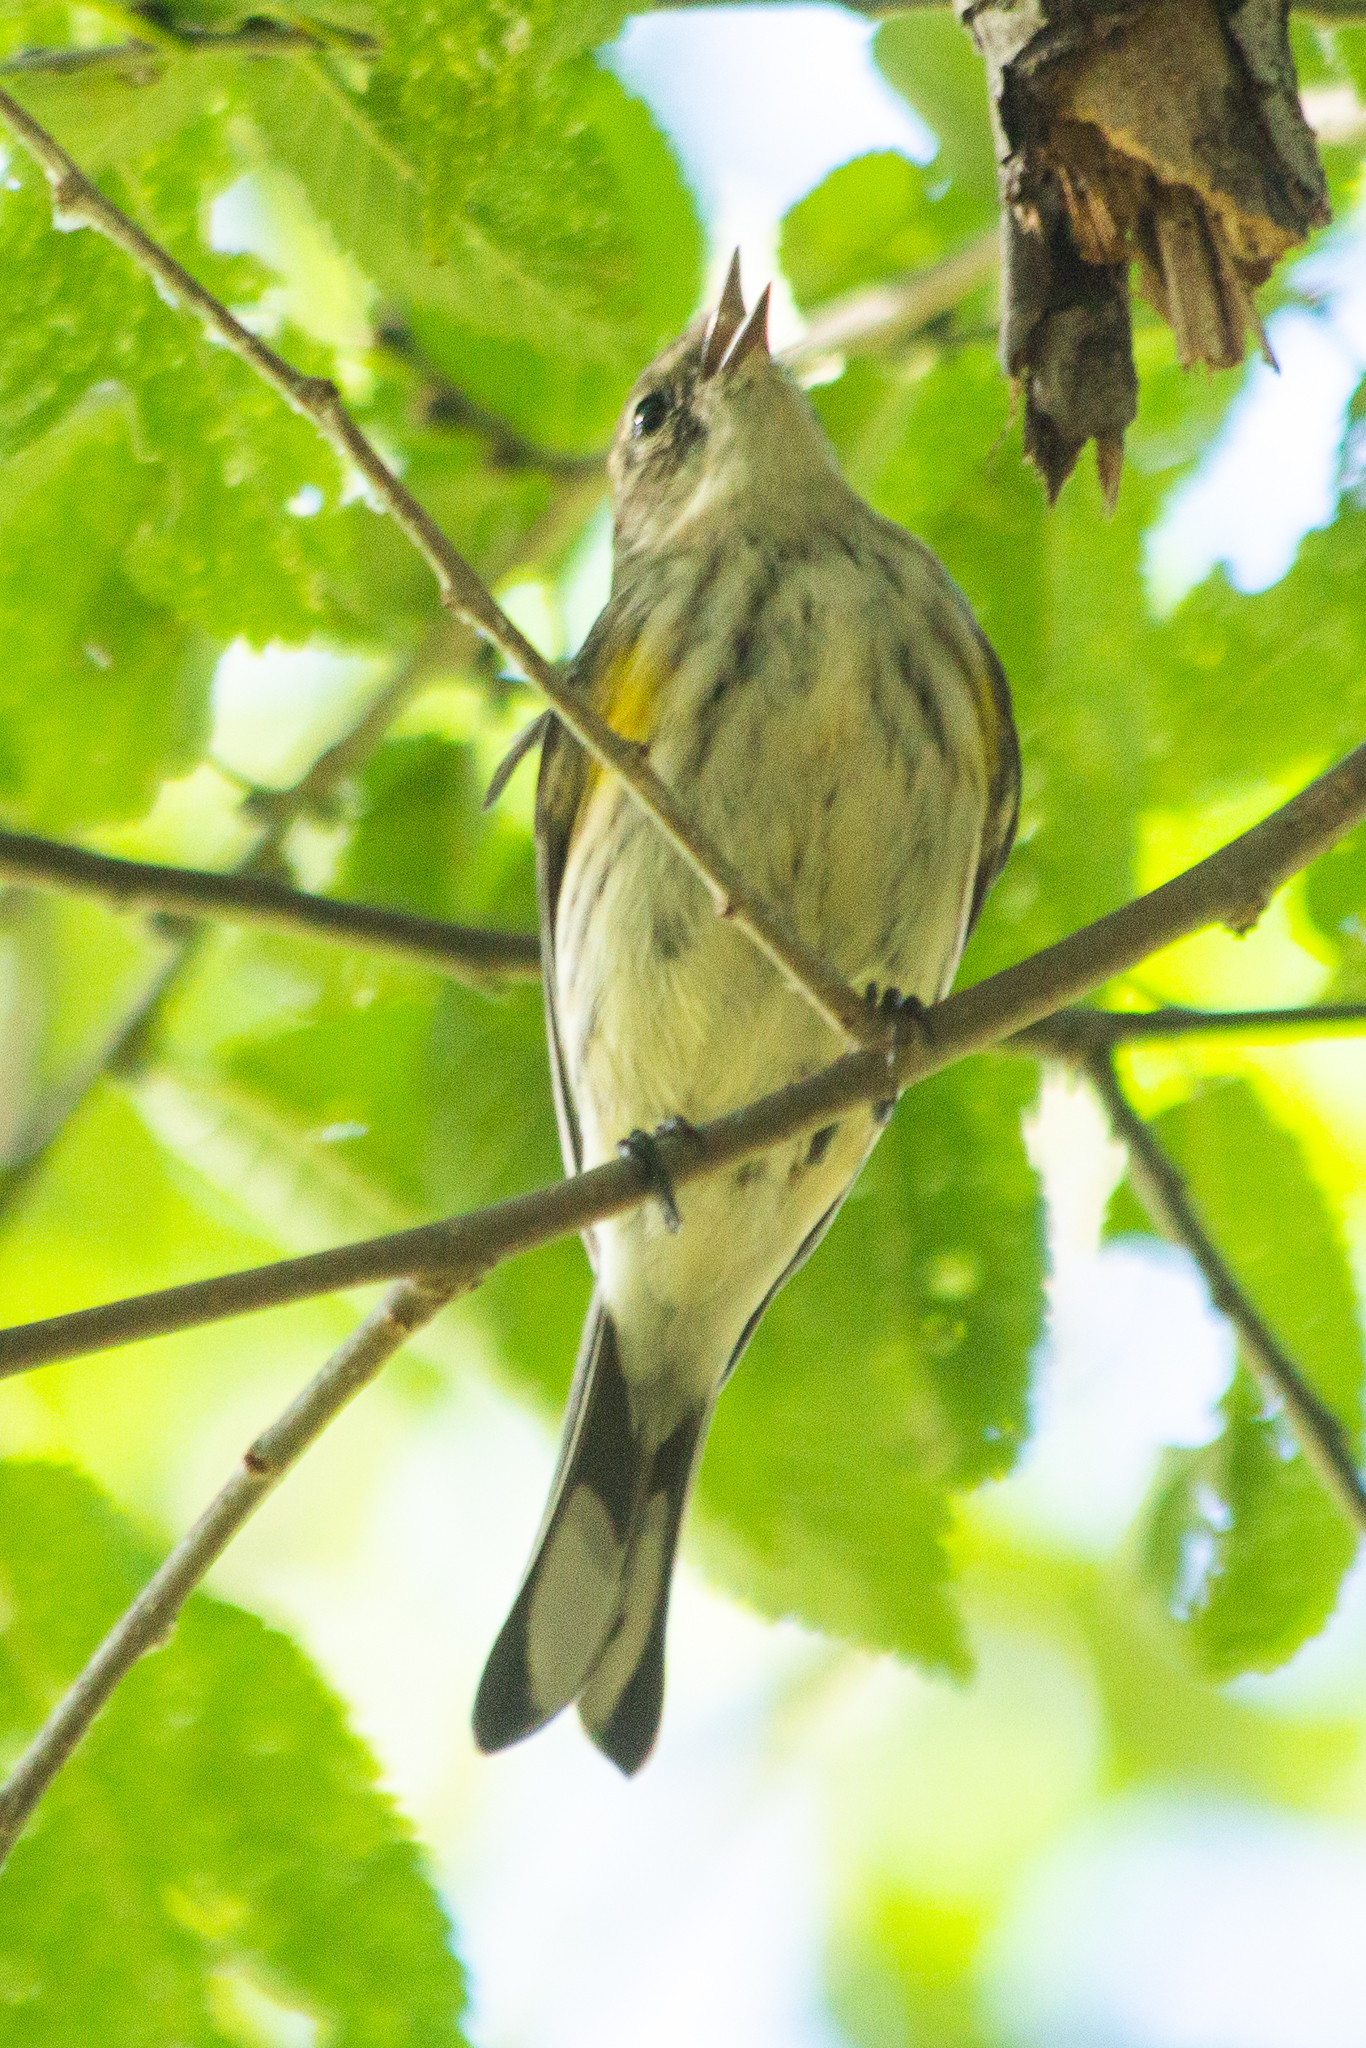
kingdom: Animalia
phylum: Chordata
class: Aves
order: Passeriformes
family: Parulidae
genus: Setophaga
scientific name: Setophaga coronata
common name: Myrtle warbler
